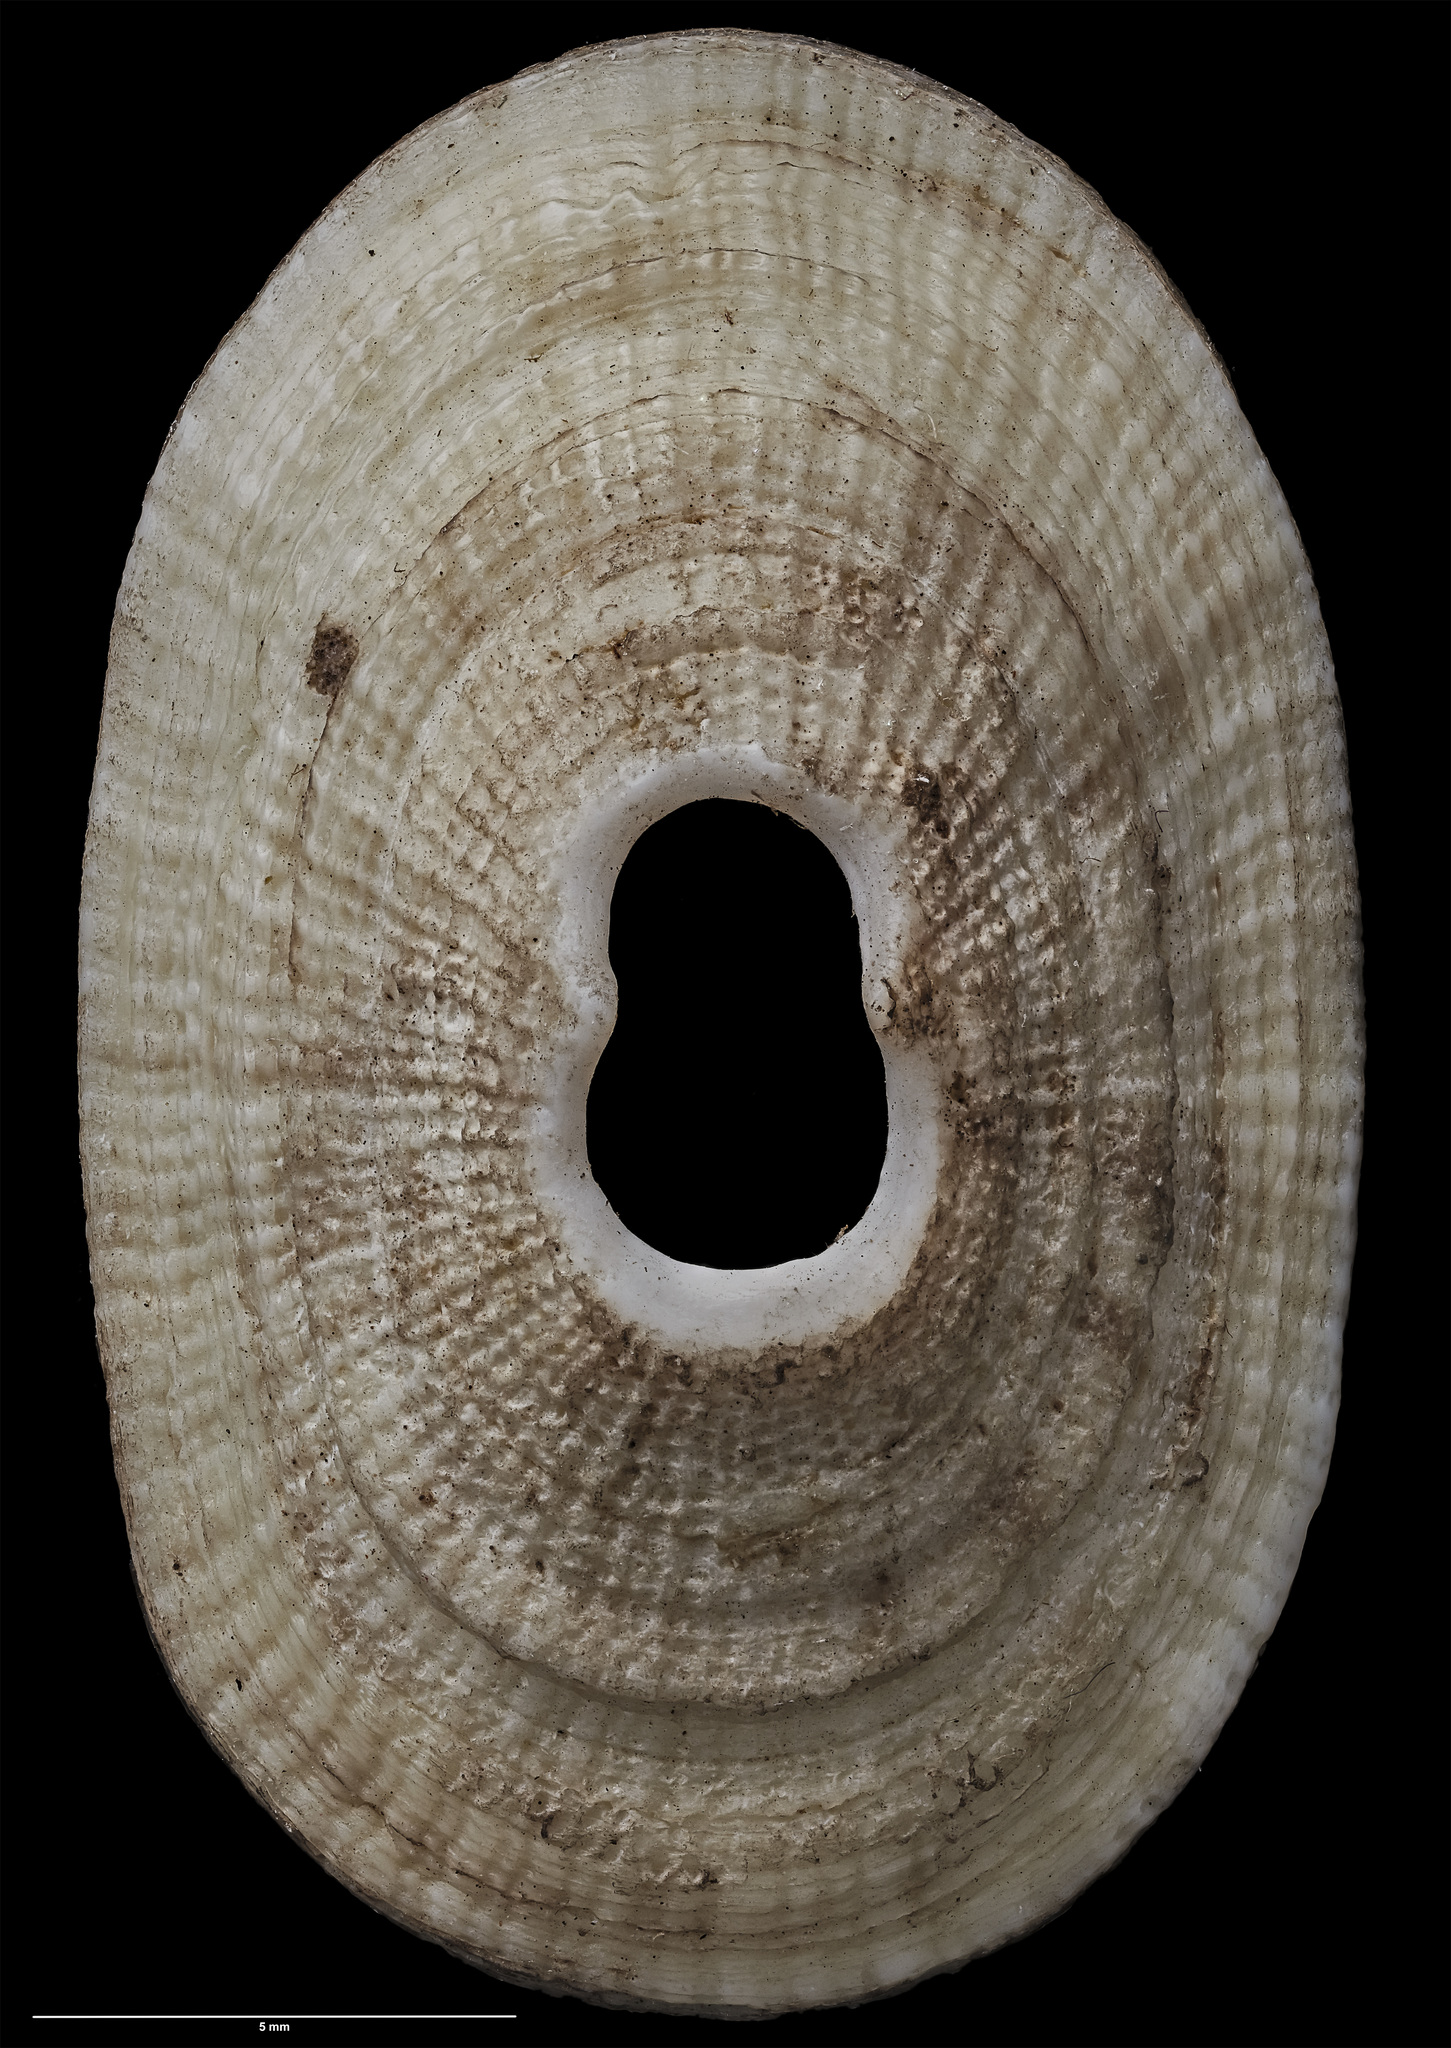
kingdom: Animalia
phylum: Mollusca
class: Gastropoda
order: Lepetellida
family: Fissurellidae
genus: Monodilepas
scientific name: Monodilepas skinneri
